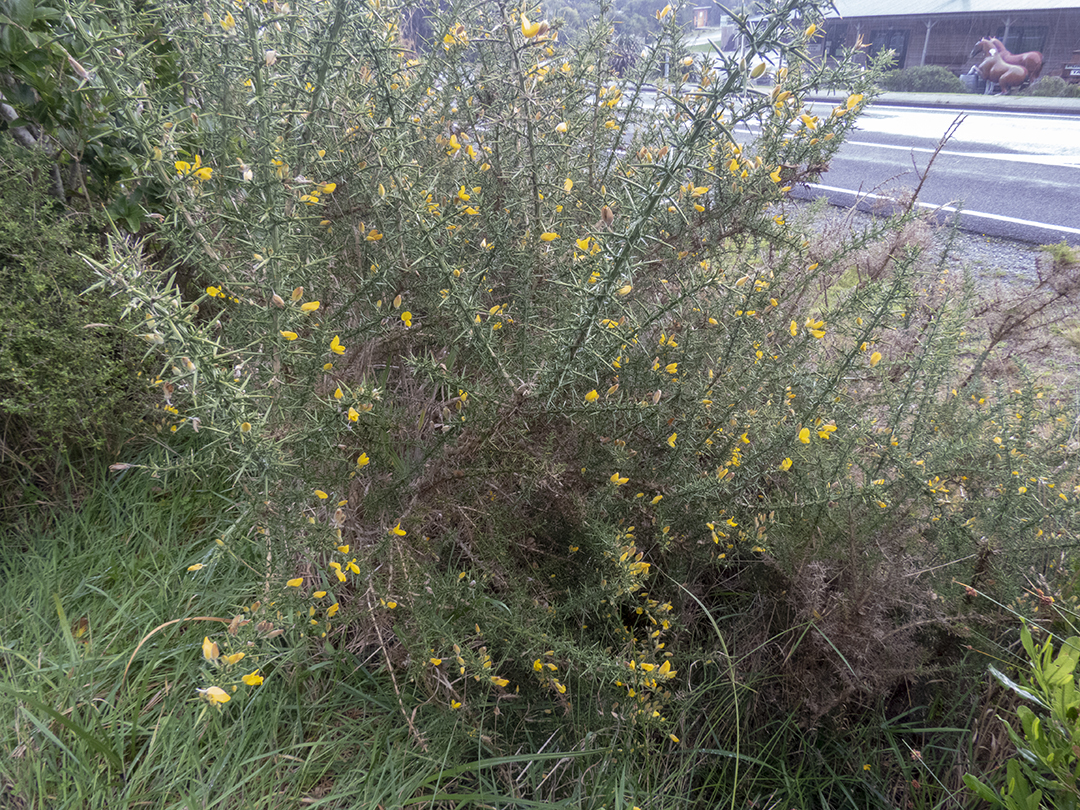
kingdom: Plantae
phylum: Tracheophyta
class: Magnoliopsida
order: Fabales
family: Fabaceae
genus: Ulex
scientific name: Ulex europaeus
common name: Common gorse
